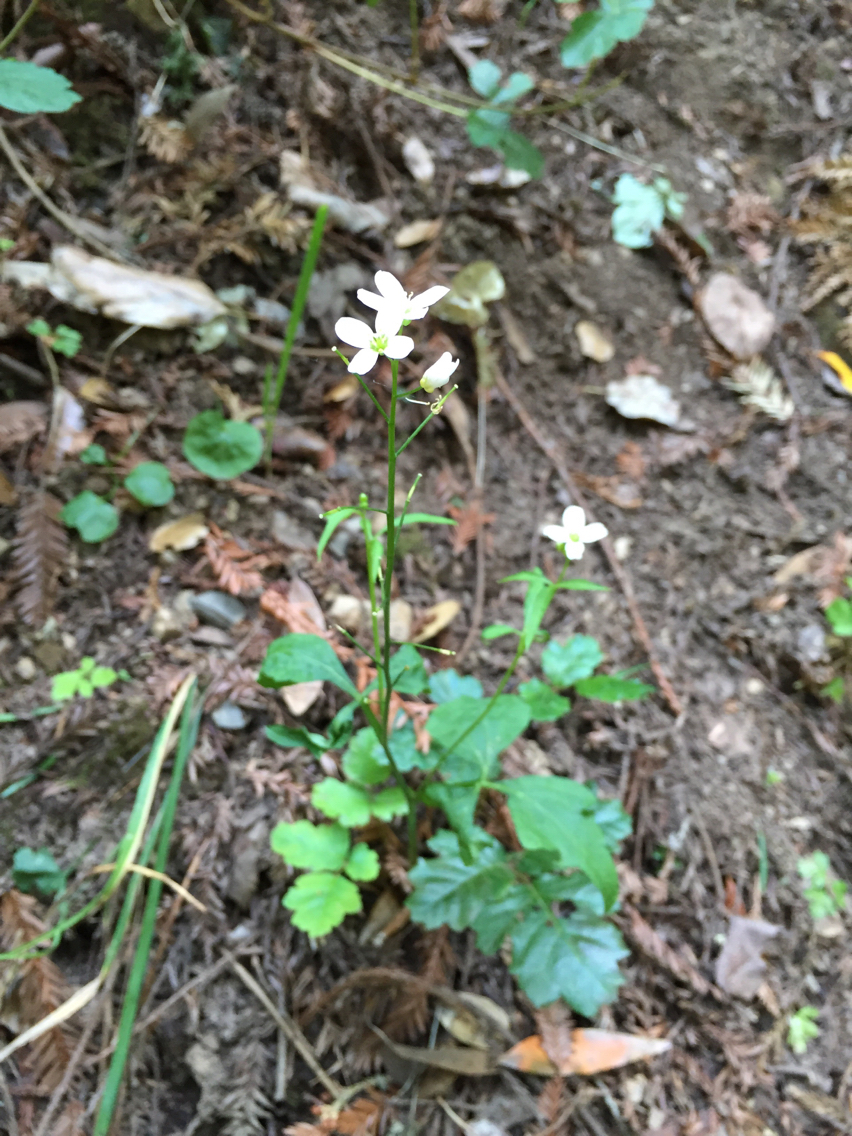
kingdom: Plantae
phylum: Tracheophyta
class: Magnoliopsida
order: Brassicales
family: Brassicaceae
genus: Cardamine
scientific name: Cardamine californica
